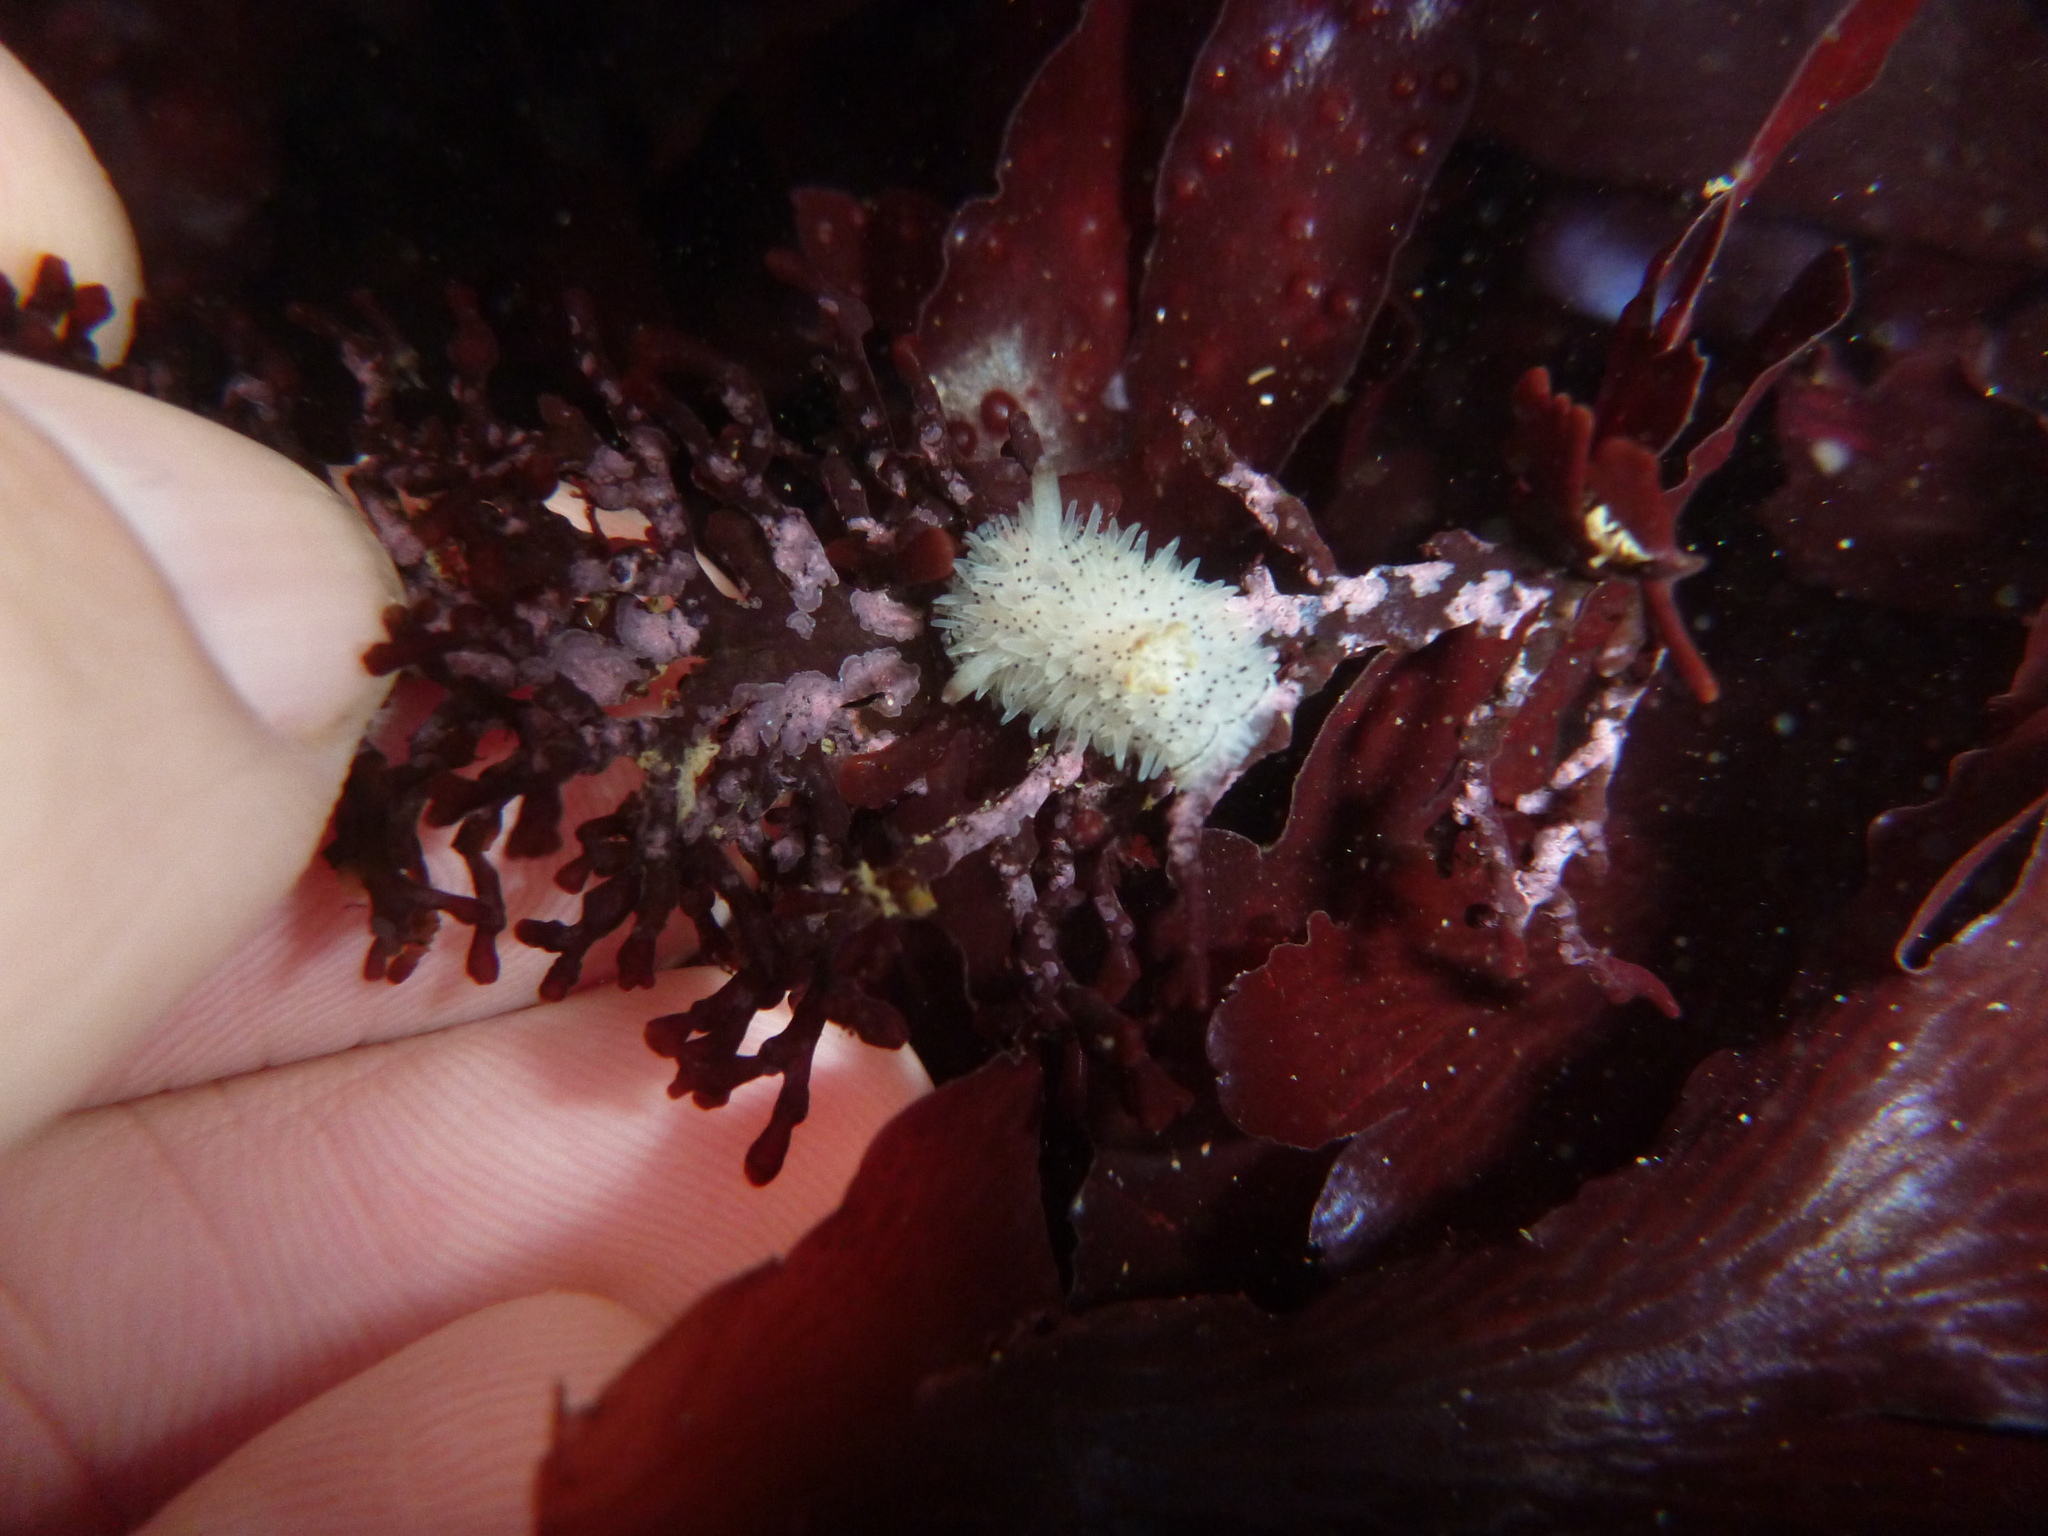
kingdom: Animalia
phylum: Mollusca
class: Gastropoda
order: Nudibranchia
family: Onchidorididae
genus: Acanthodoris
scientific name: Acanthodoris rhodoceras
